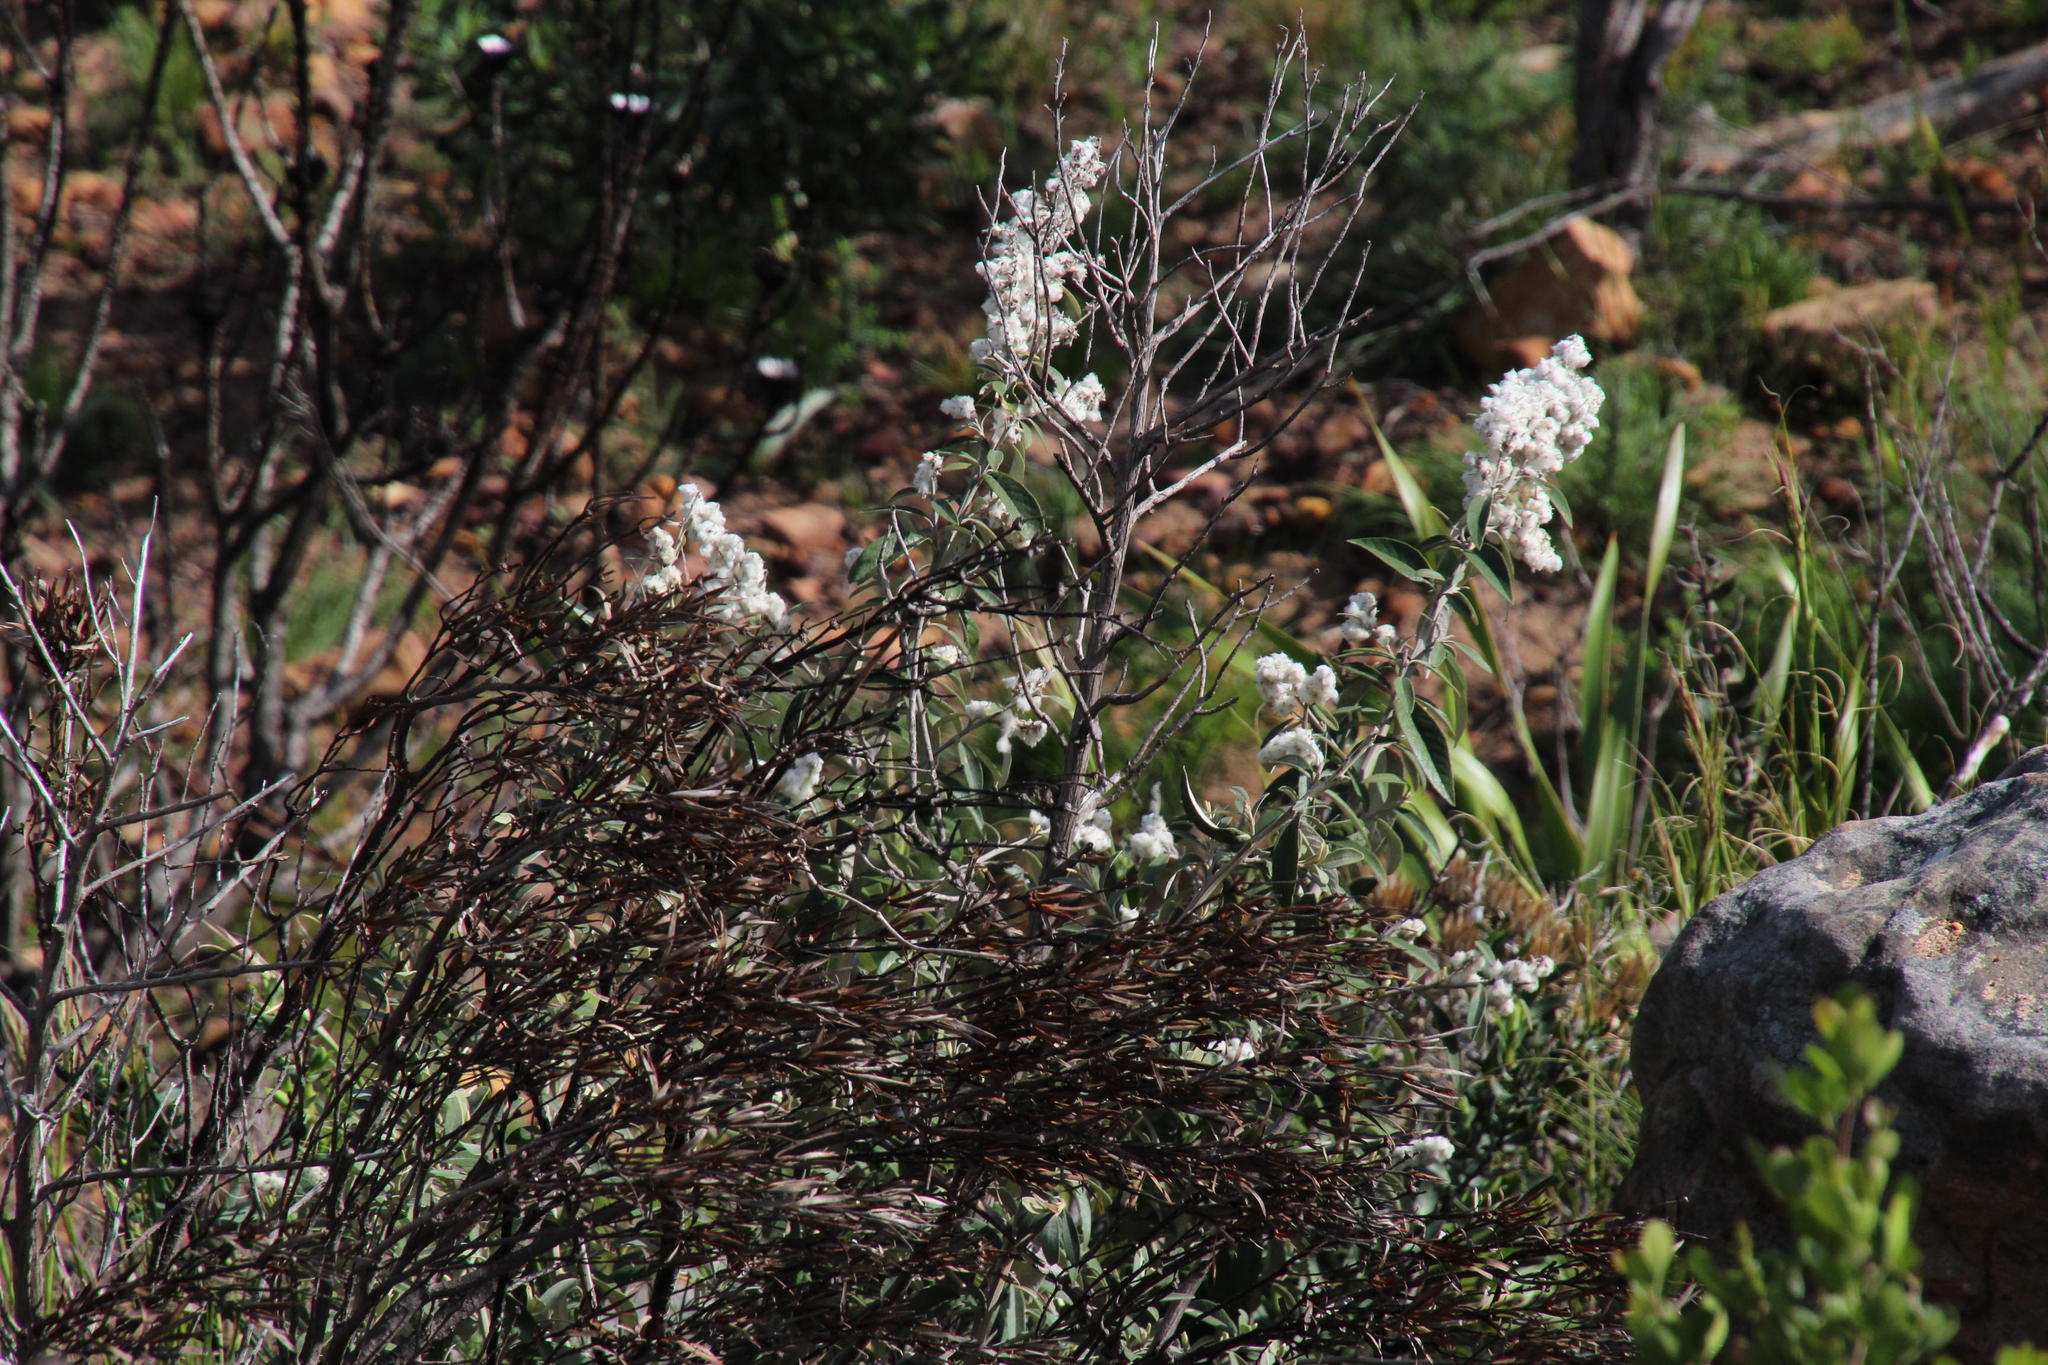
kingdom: Plantae
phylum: Tracheophyta
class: Magnoliopsida
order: Asterales
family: Asteraceae
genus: Tarchonanthus
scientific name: Tarchonanthus littoralis
